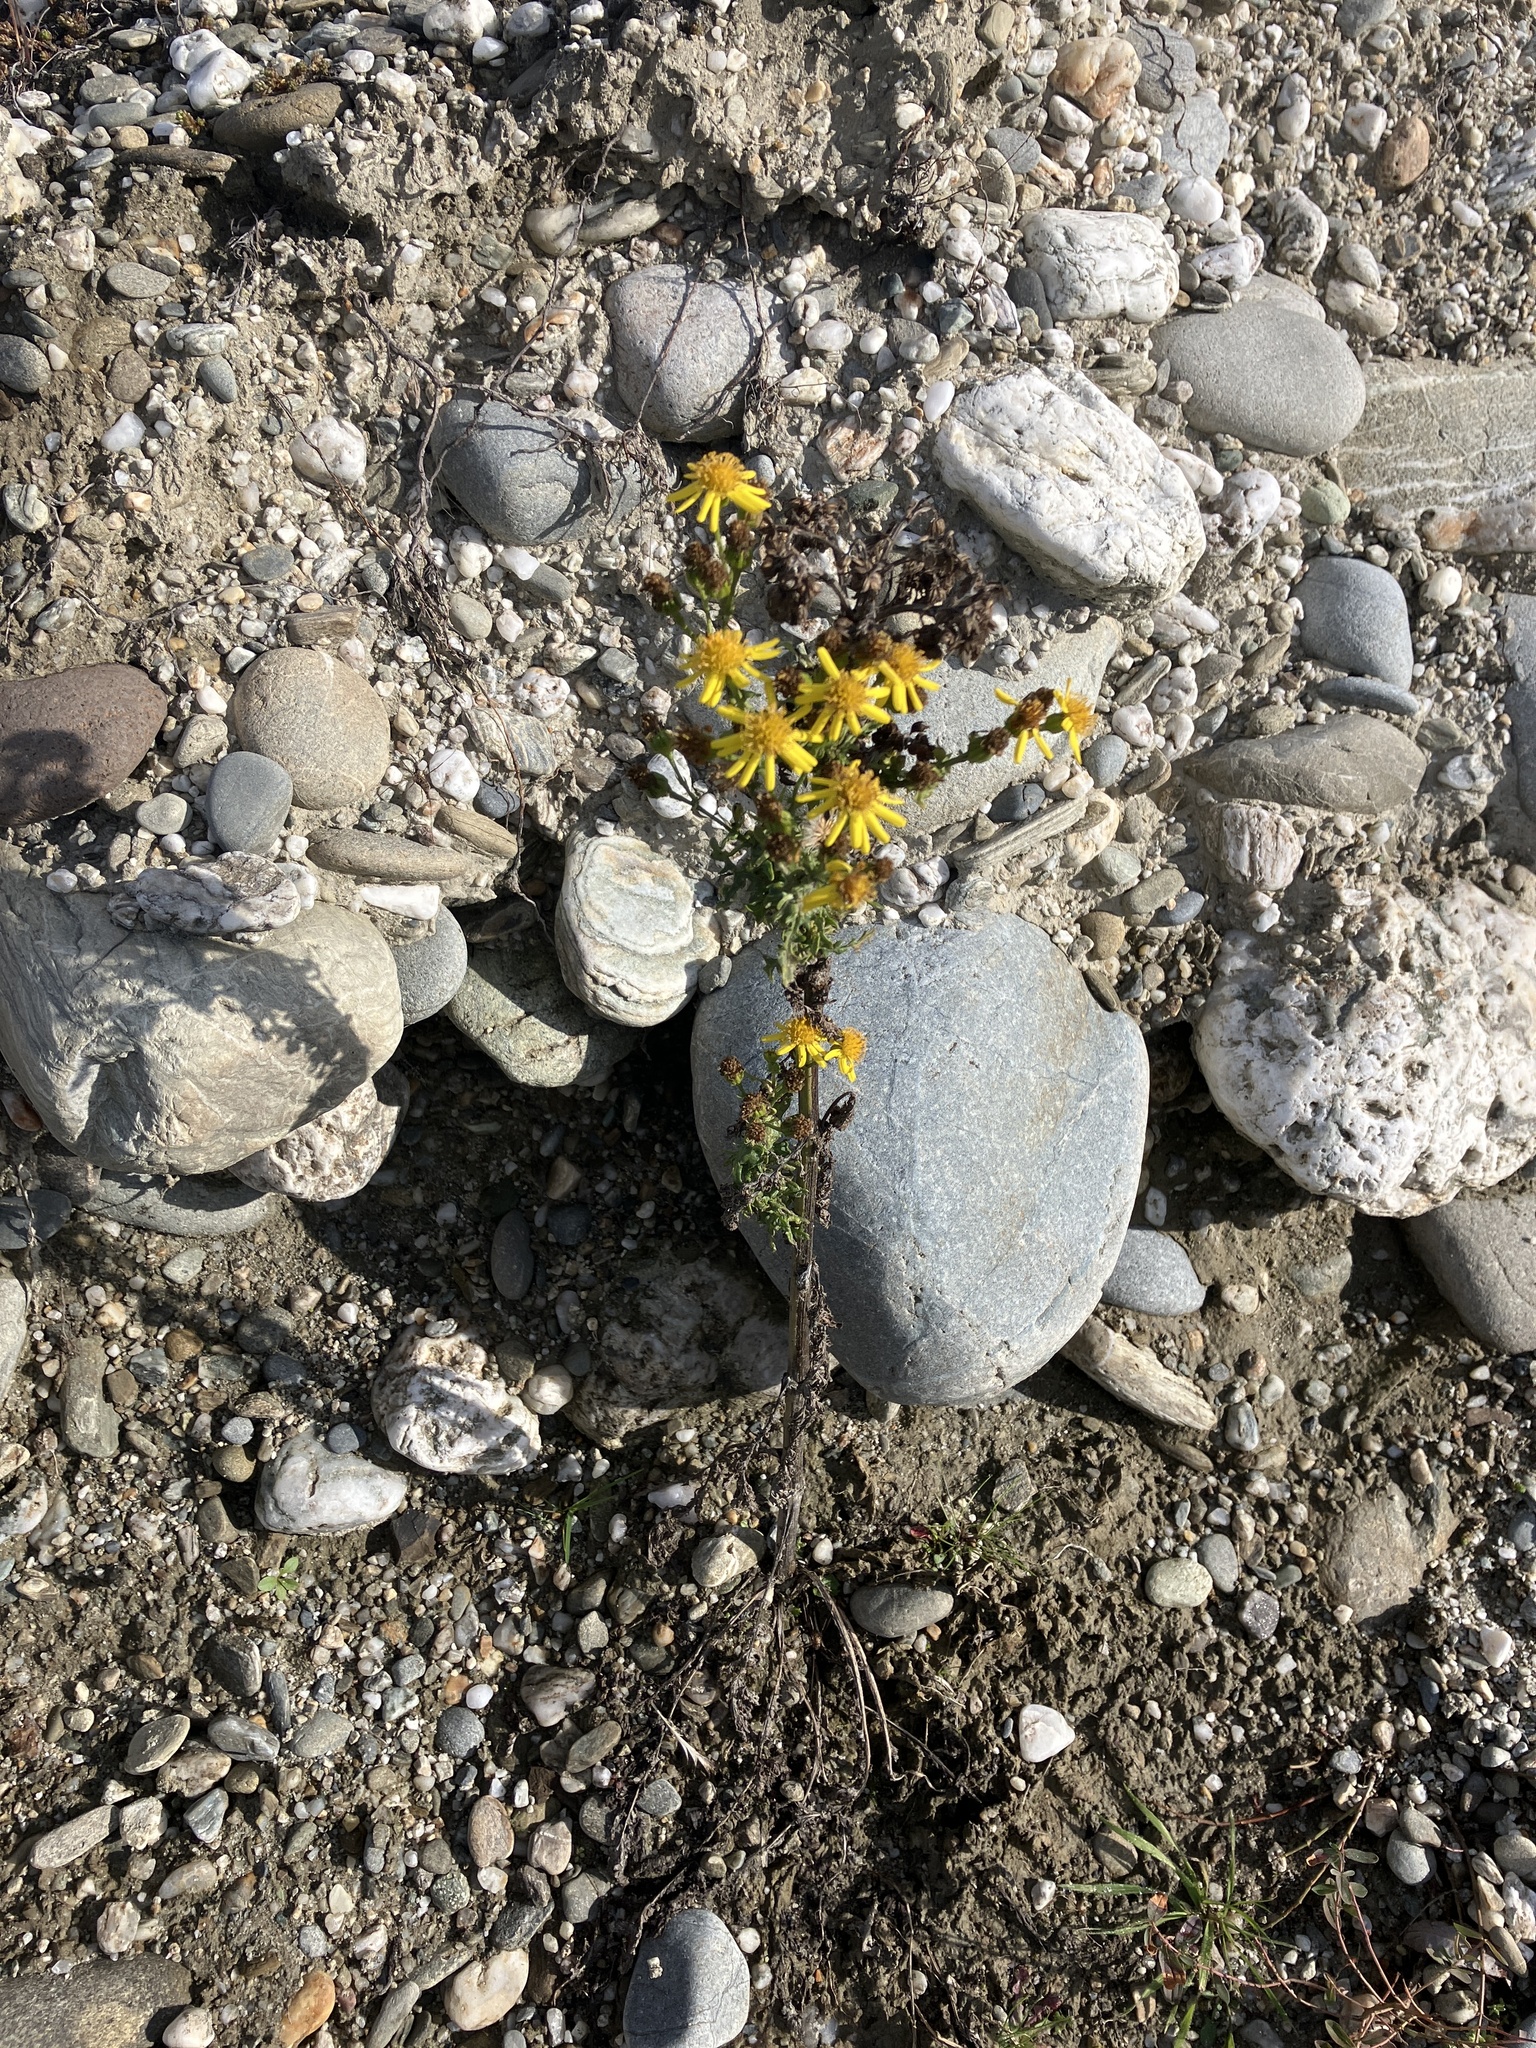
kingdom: Plantae
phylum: Tracheophyta
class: Magnoliopsida
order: Asterales
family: Asteraceae
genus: Jacobaea
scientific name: Jacobaea vulgaris
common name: Stinking willie
